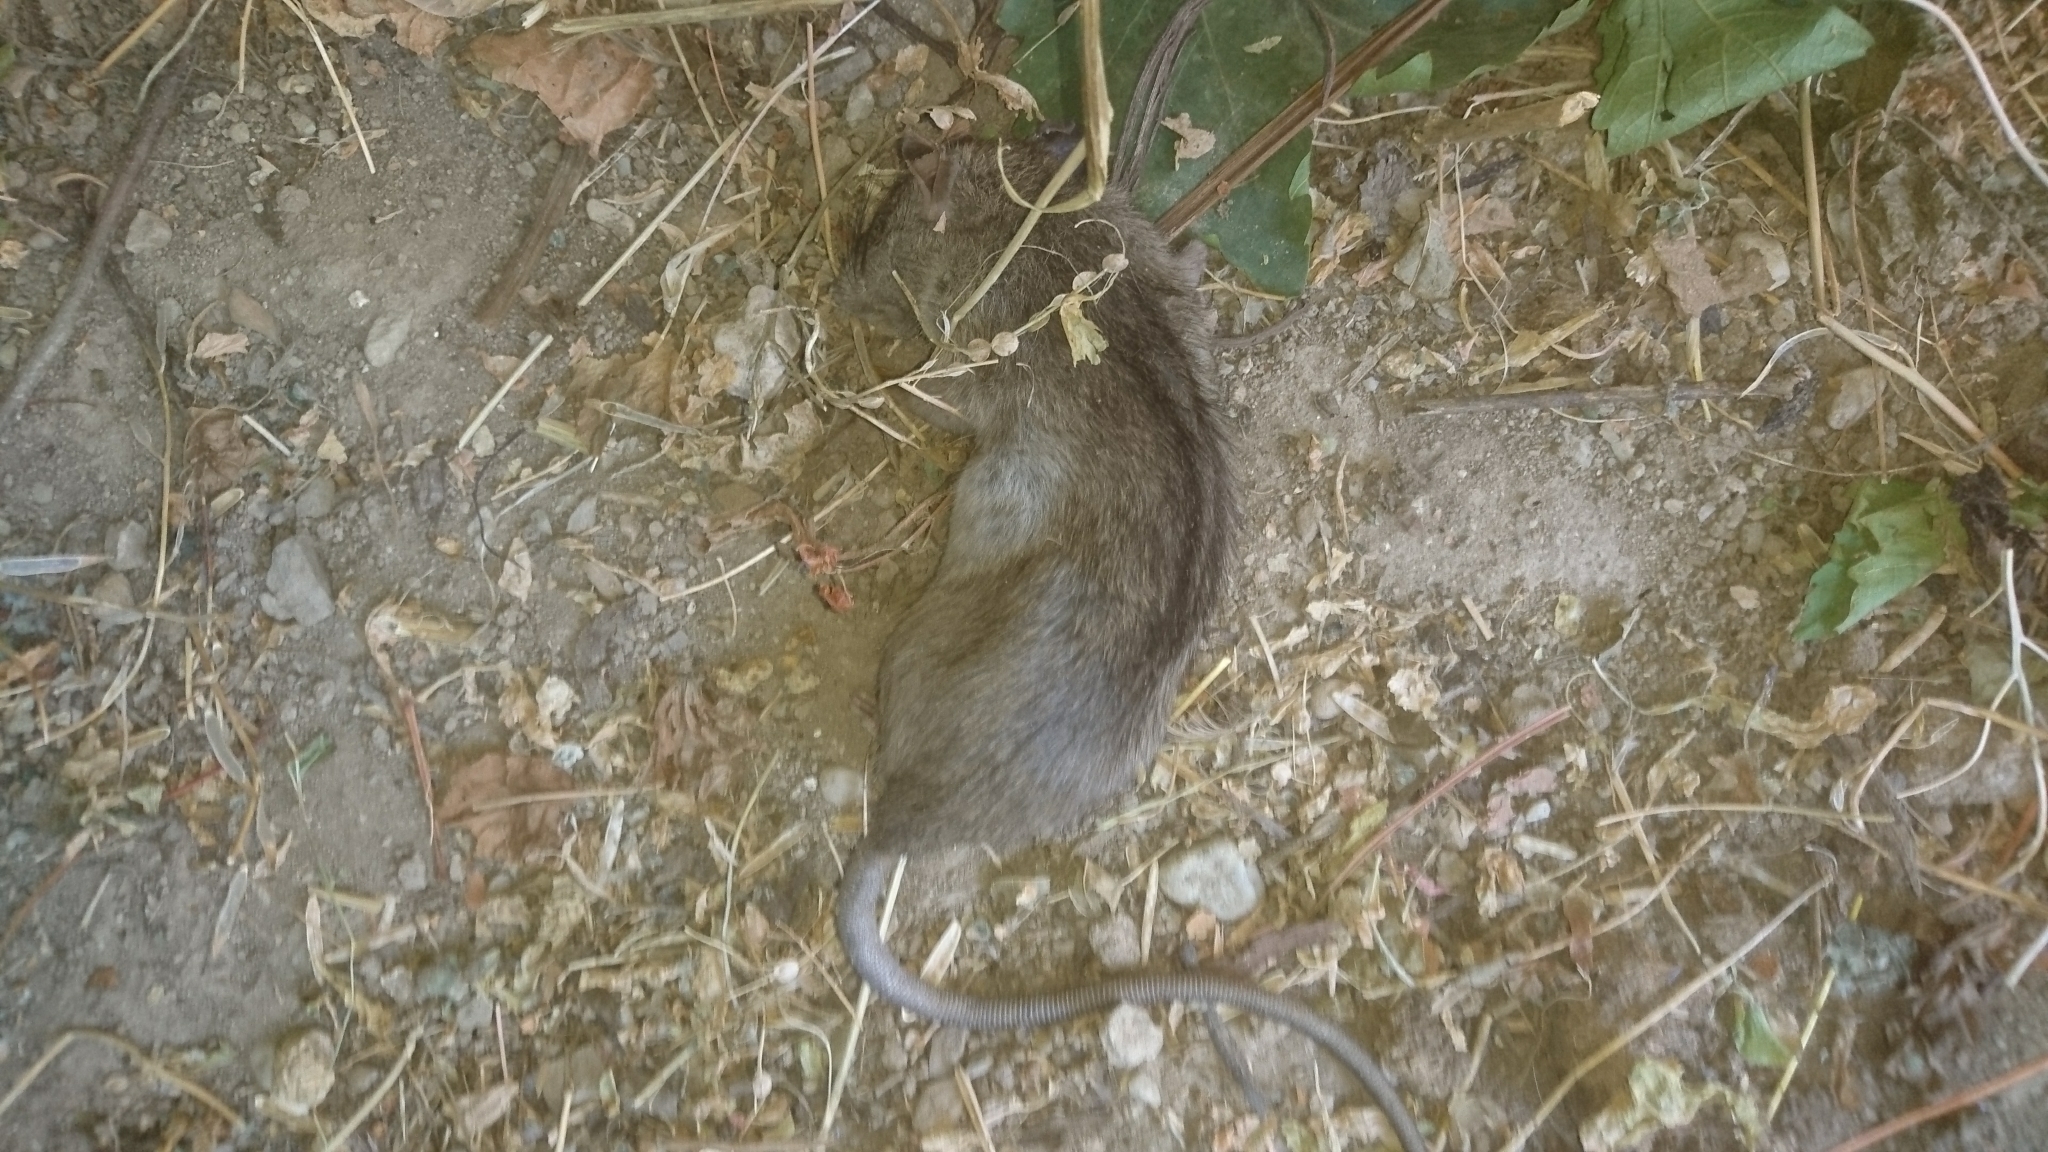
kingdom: Animalia
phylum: Chordata
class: Mammalia
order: Rodentia
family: Muridae
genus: Mus
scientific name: Mus musculus
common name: House mouse
